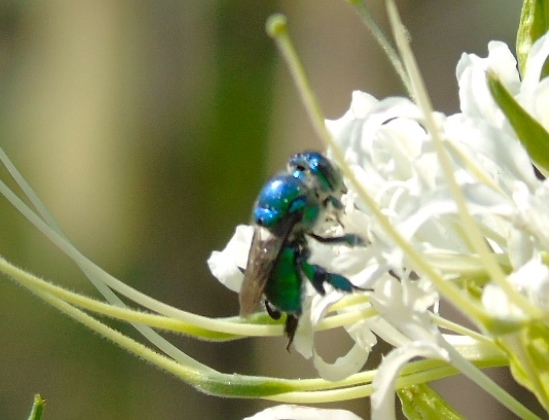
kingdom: Animalia
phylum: Arthropoda
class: Insecta
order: Hymenoptera
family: Apidae
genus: Euglossa
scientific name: Euglossa
